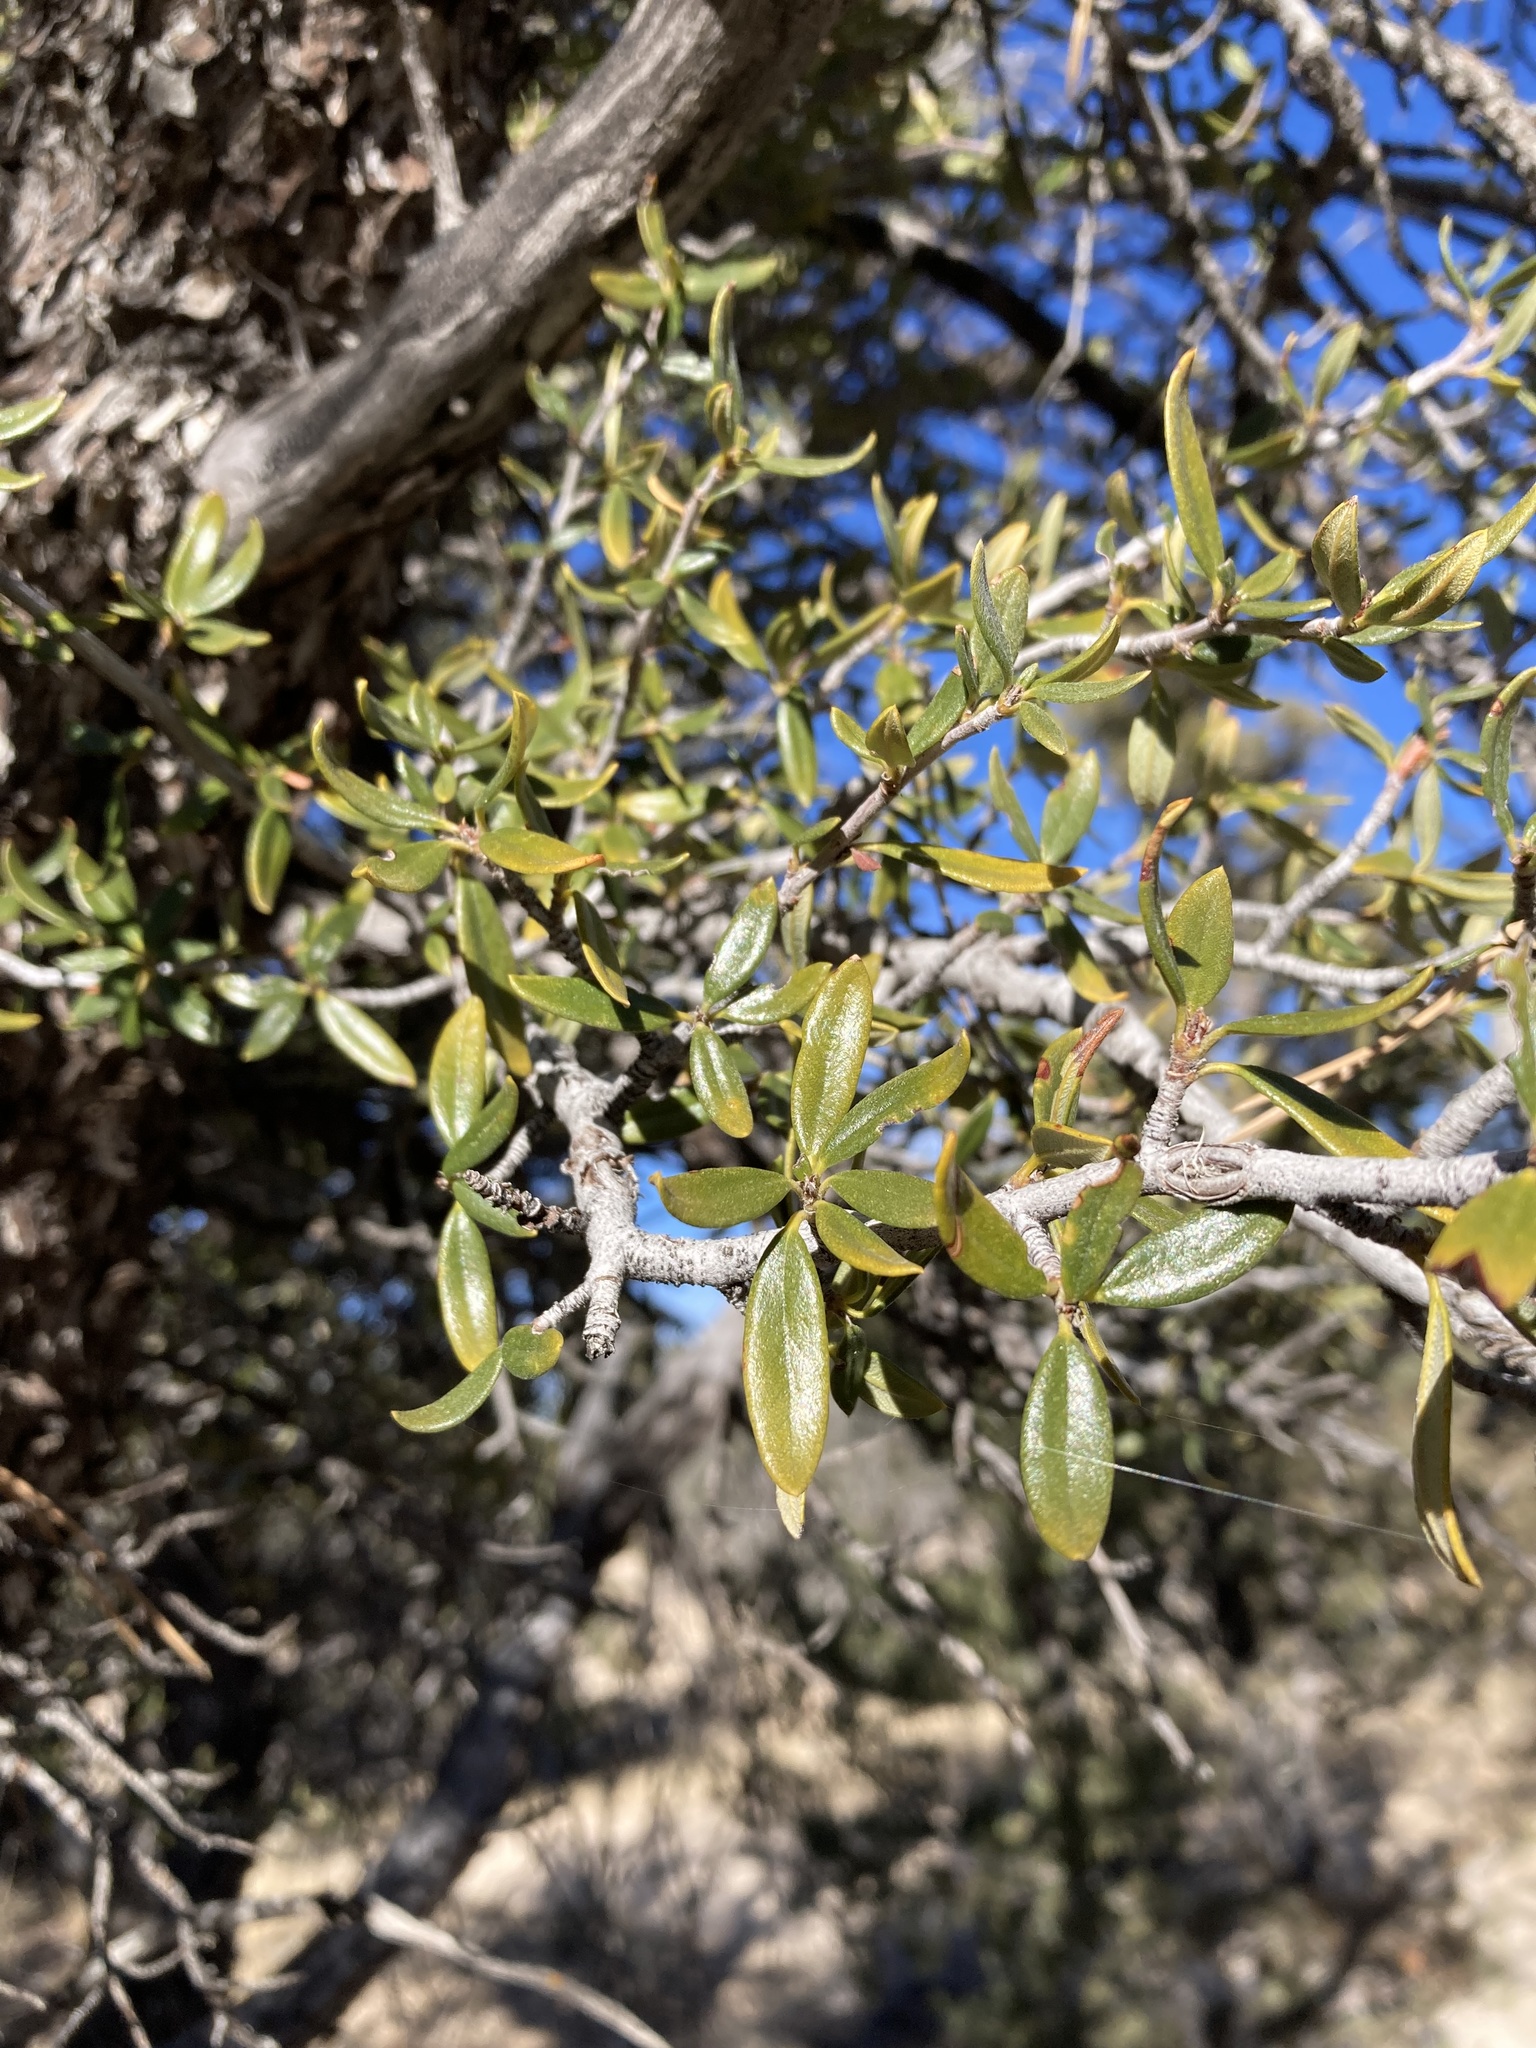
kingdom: Plantae
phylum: Tracheophyta
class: Magnoliopsida
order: Rosales
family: Rosaceae
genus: Cercocarpus
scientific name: Cercocarpus ledifolius
